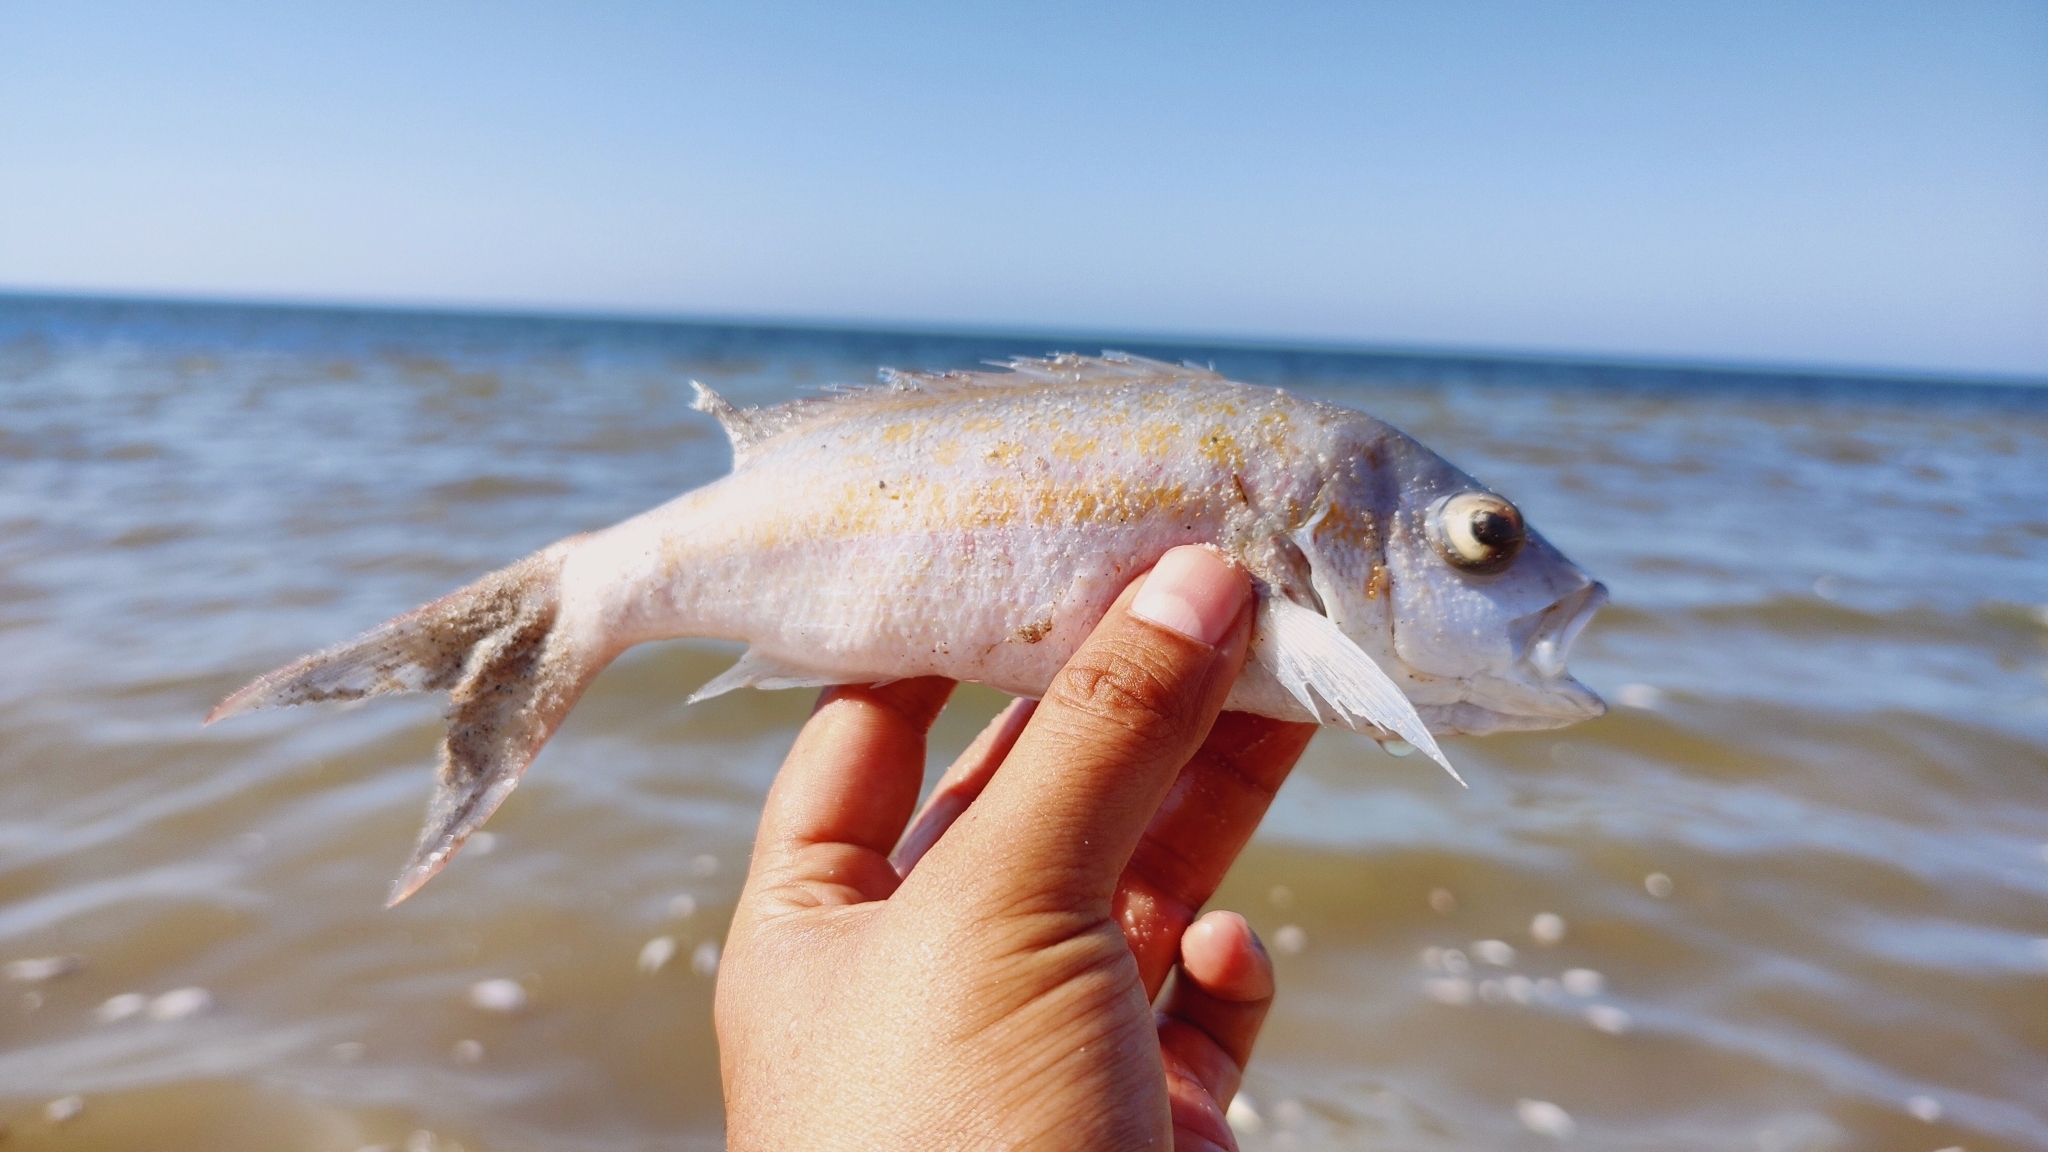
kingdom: Animalia
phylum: Chordata
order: Perciformes
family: Lutjanidae
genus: Ocyurus
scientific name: Ocyurus chrysurus
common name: Yellowtail snapper
